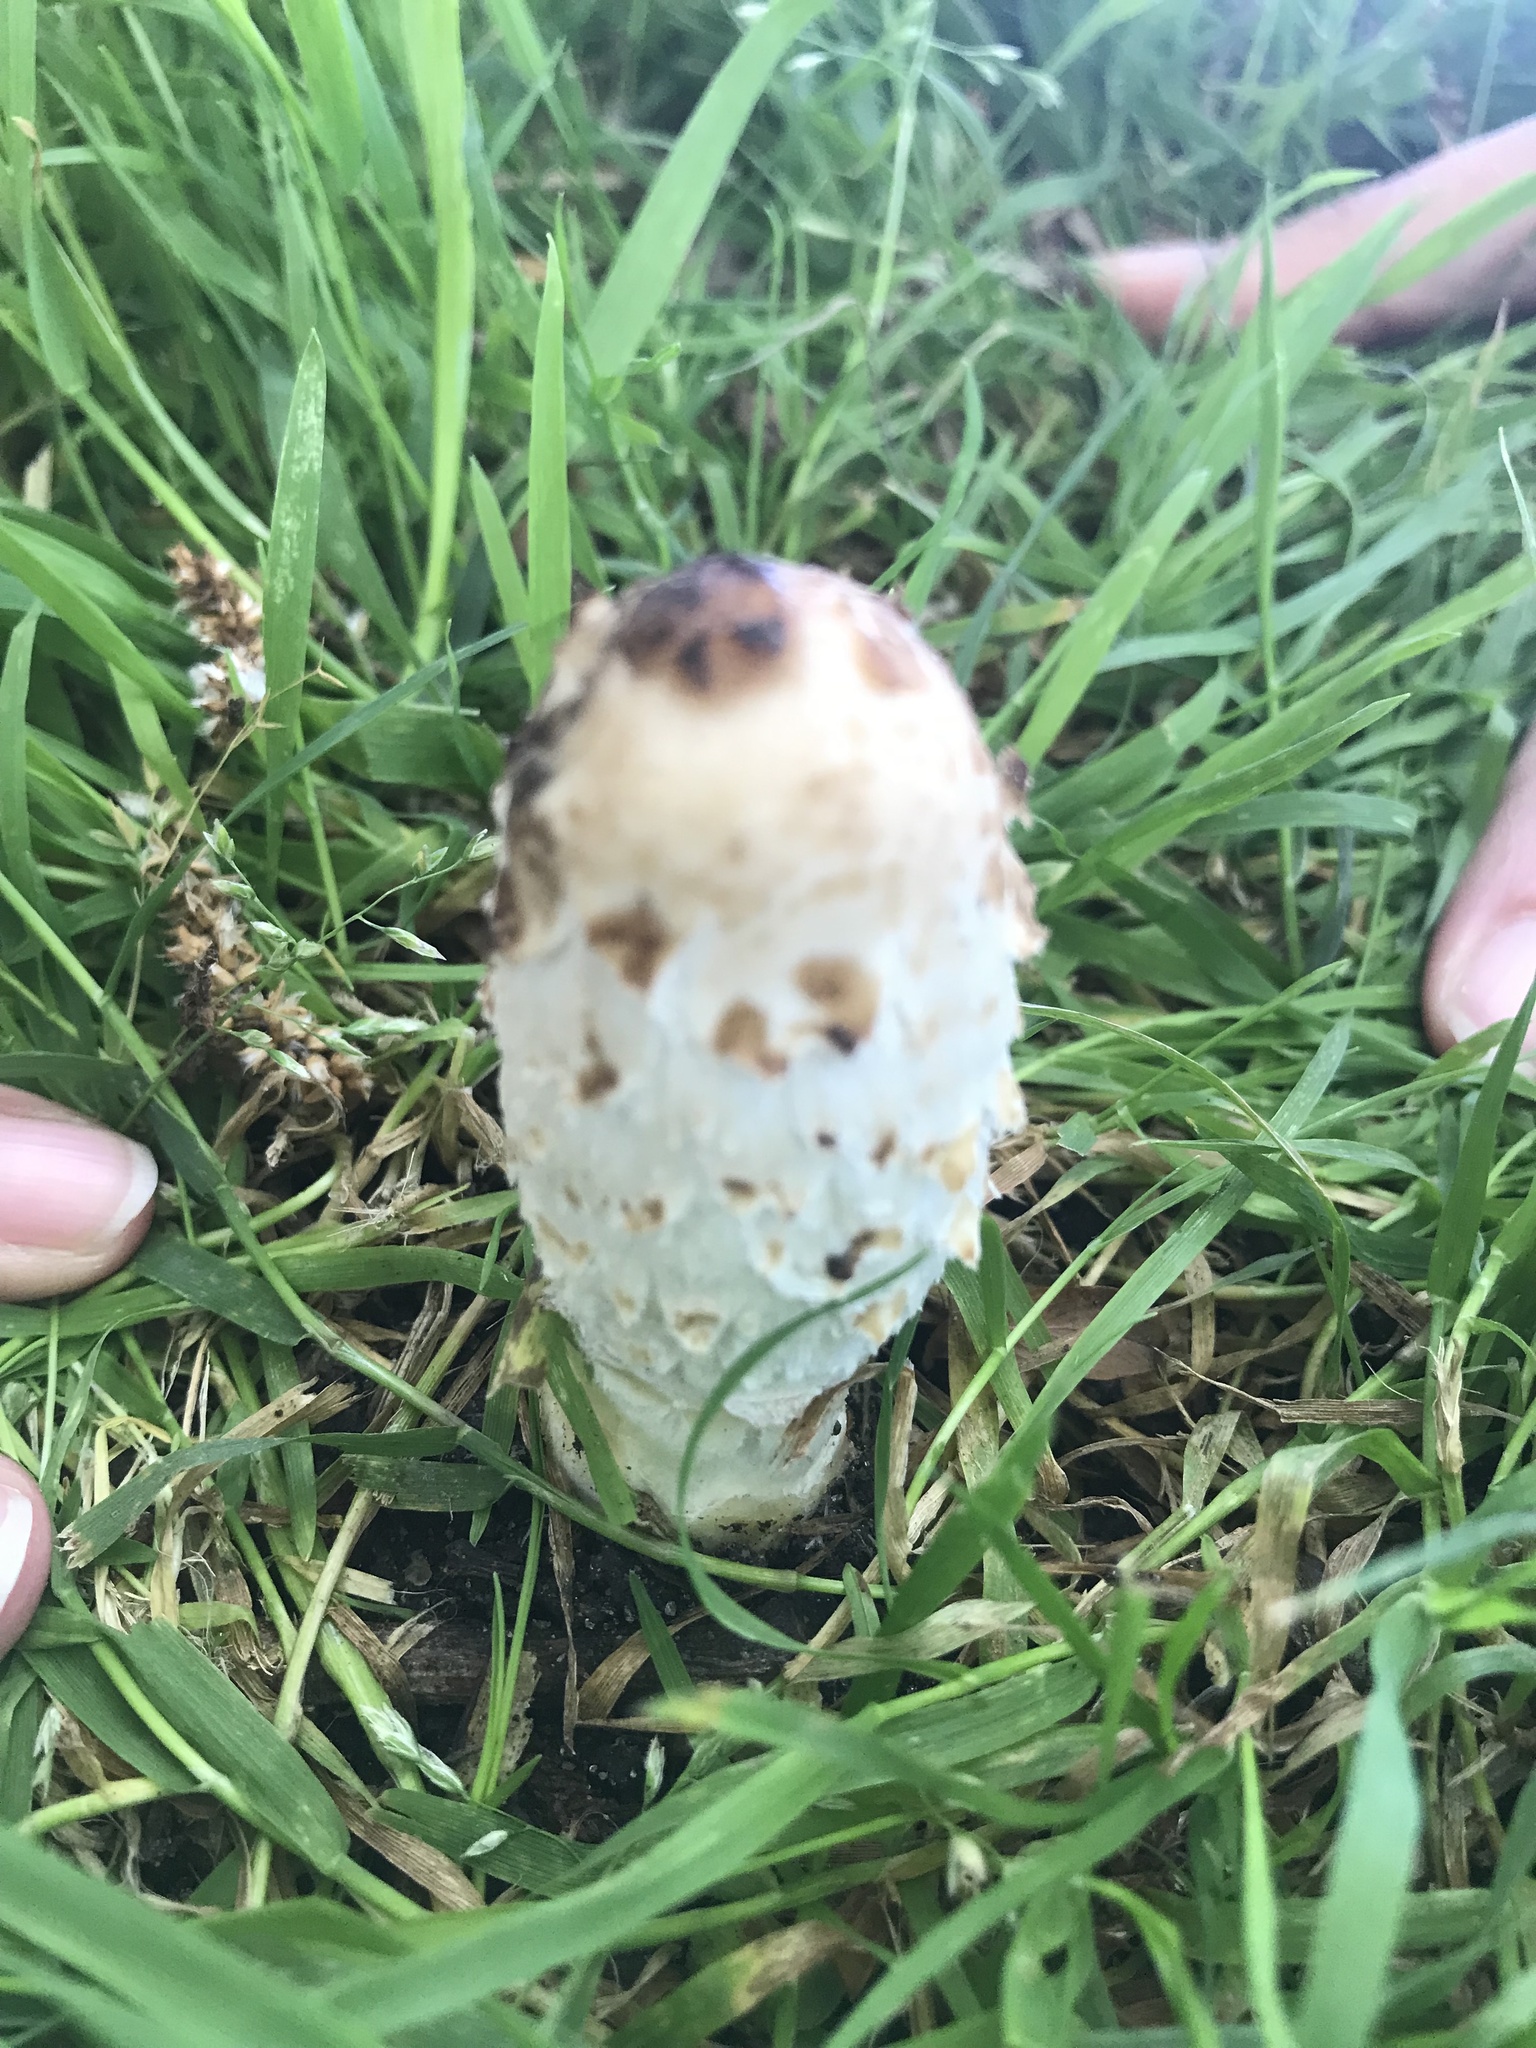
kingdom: Fungi
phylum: Basidiomycota
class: Agaricomycetes
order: Agaricales
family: Agaricaceae
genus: Coprinus
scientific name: Coprinus comatus
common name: Lawyer's wig
